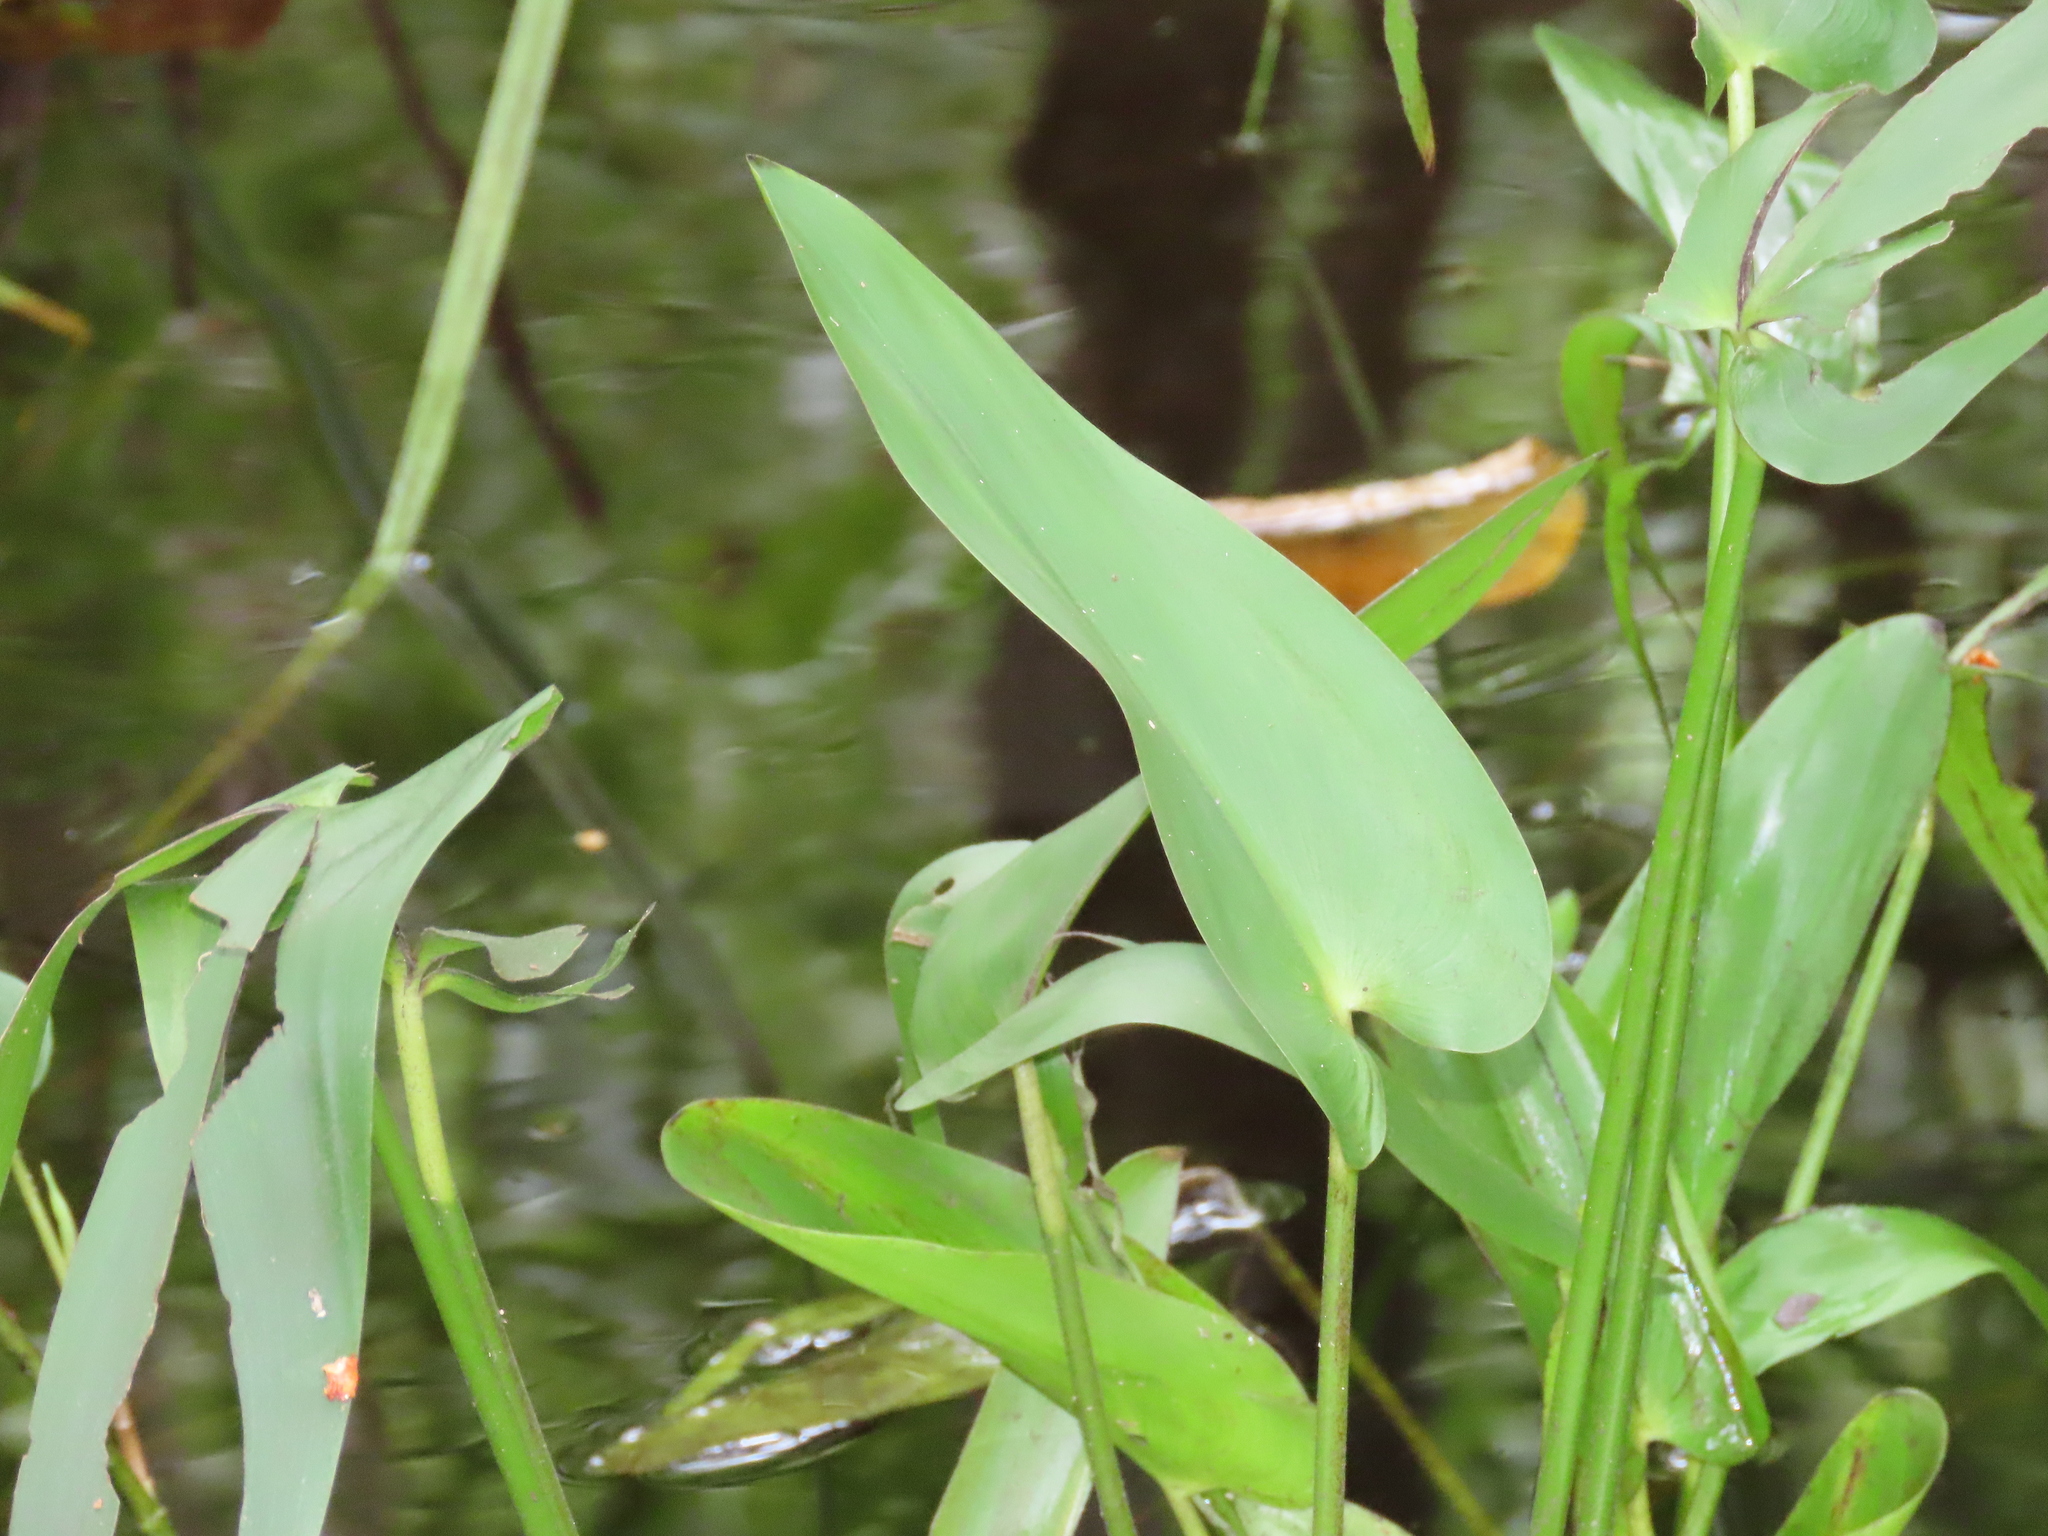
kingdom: Plantae
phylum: Tracheophyta
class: Liliopsida
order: Commelinales
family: Pontederiaceae
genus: Pontederia
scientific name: Pontederia cordata
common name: Pickerelweed
